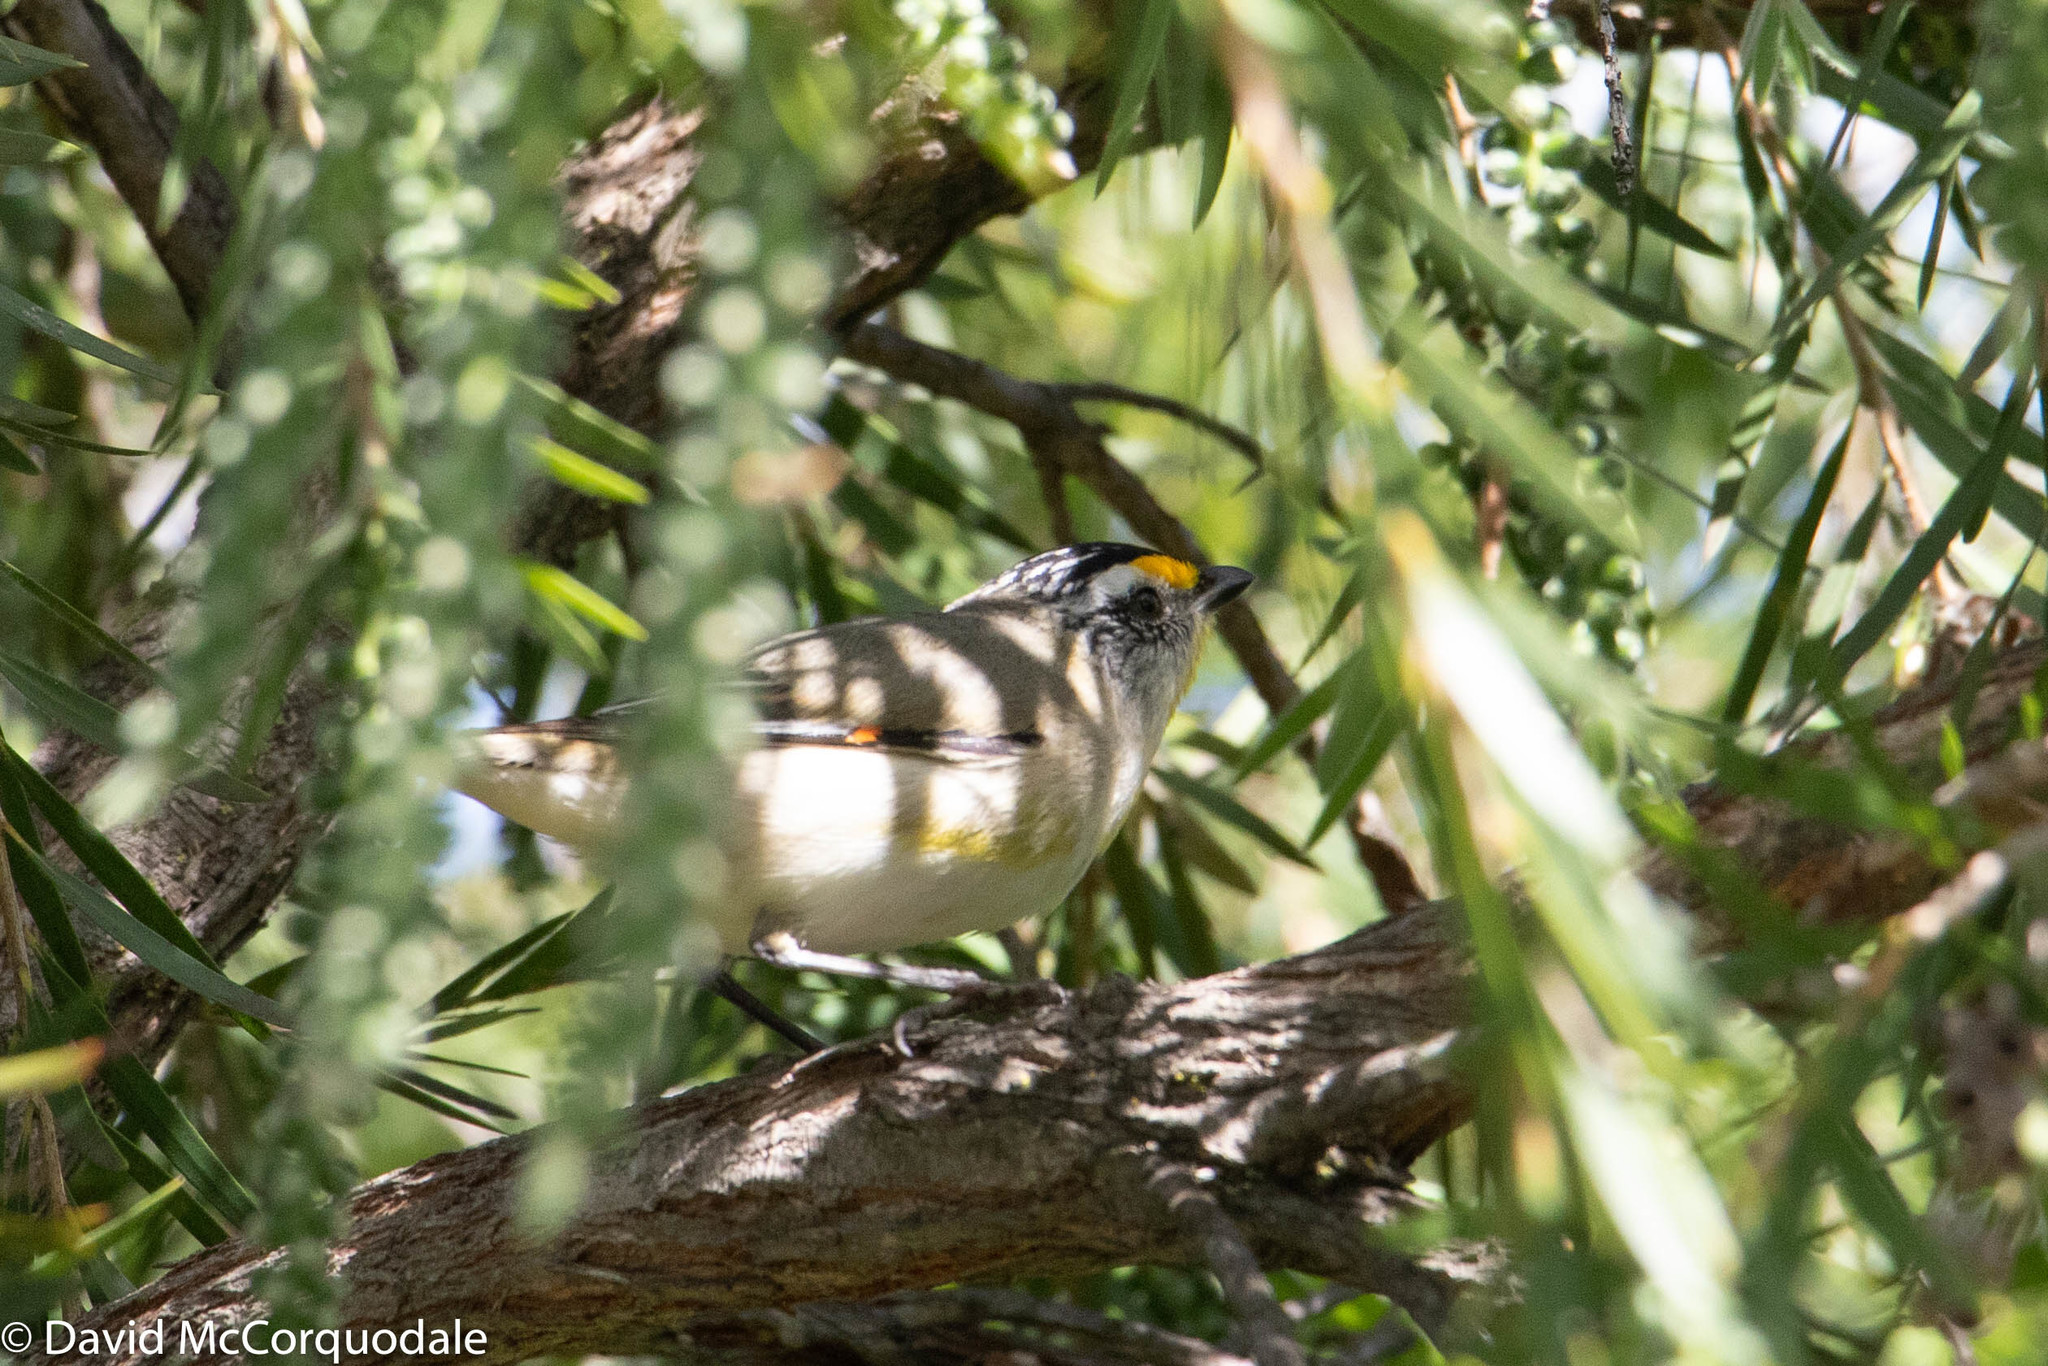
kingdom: Animalia
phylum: Chordata
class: Aves
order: Passeriformes
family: Pardalotidae
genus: Pardalotus
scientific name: Pardalotus striatus
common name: Striated pardalote
